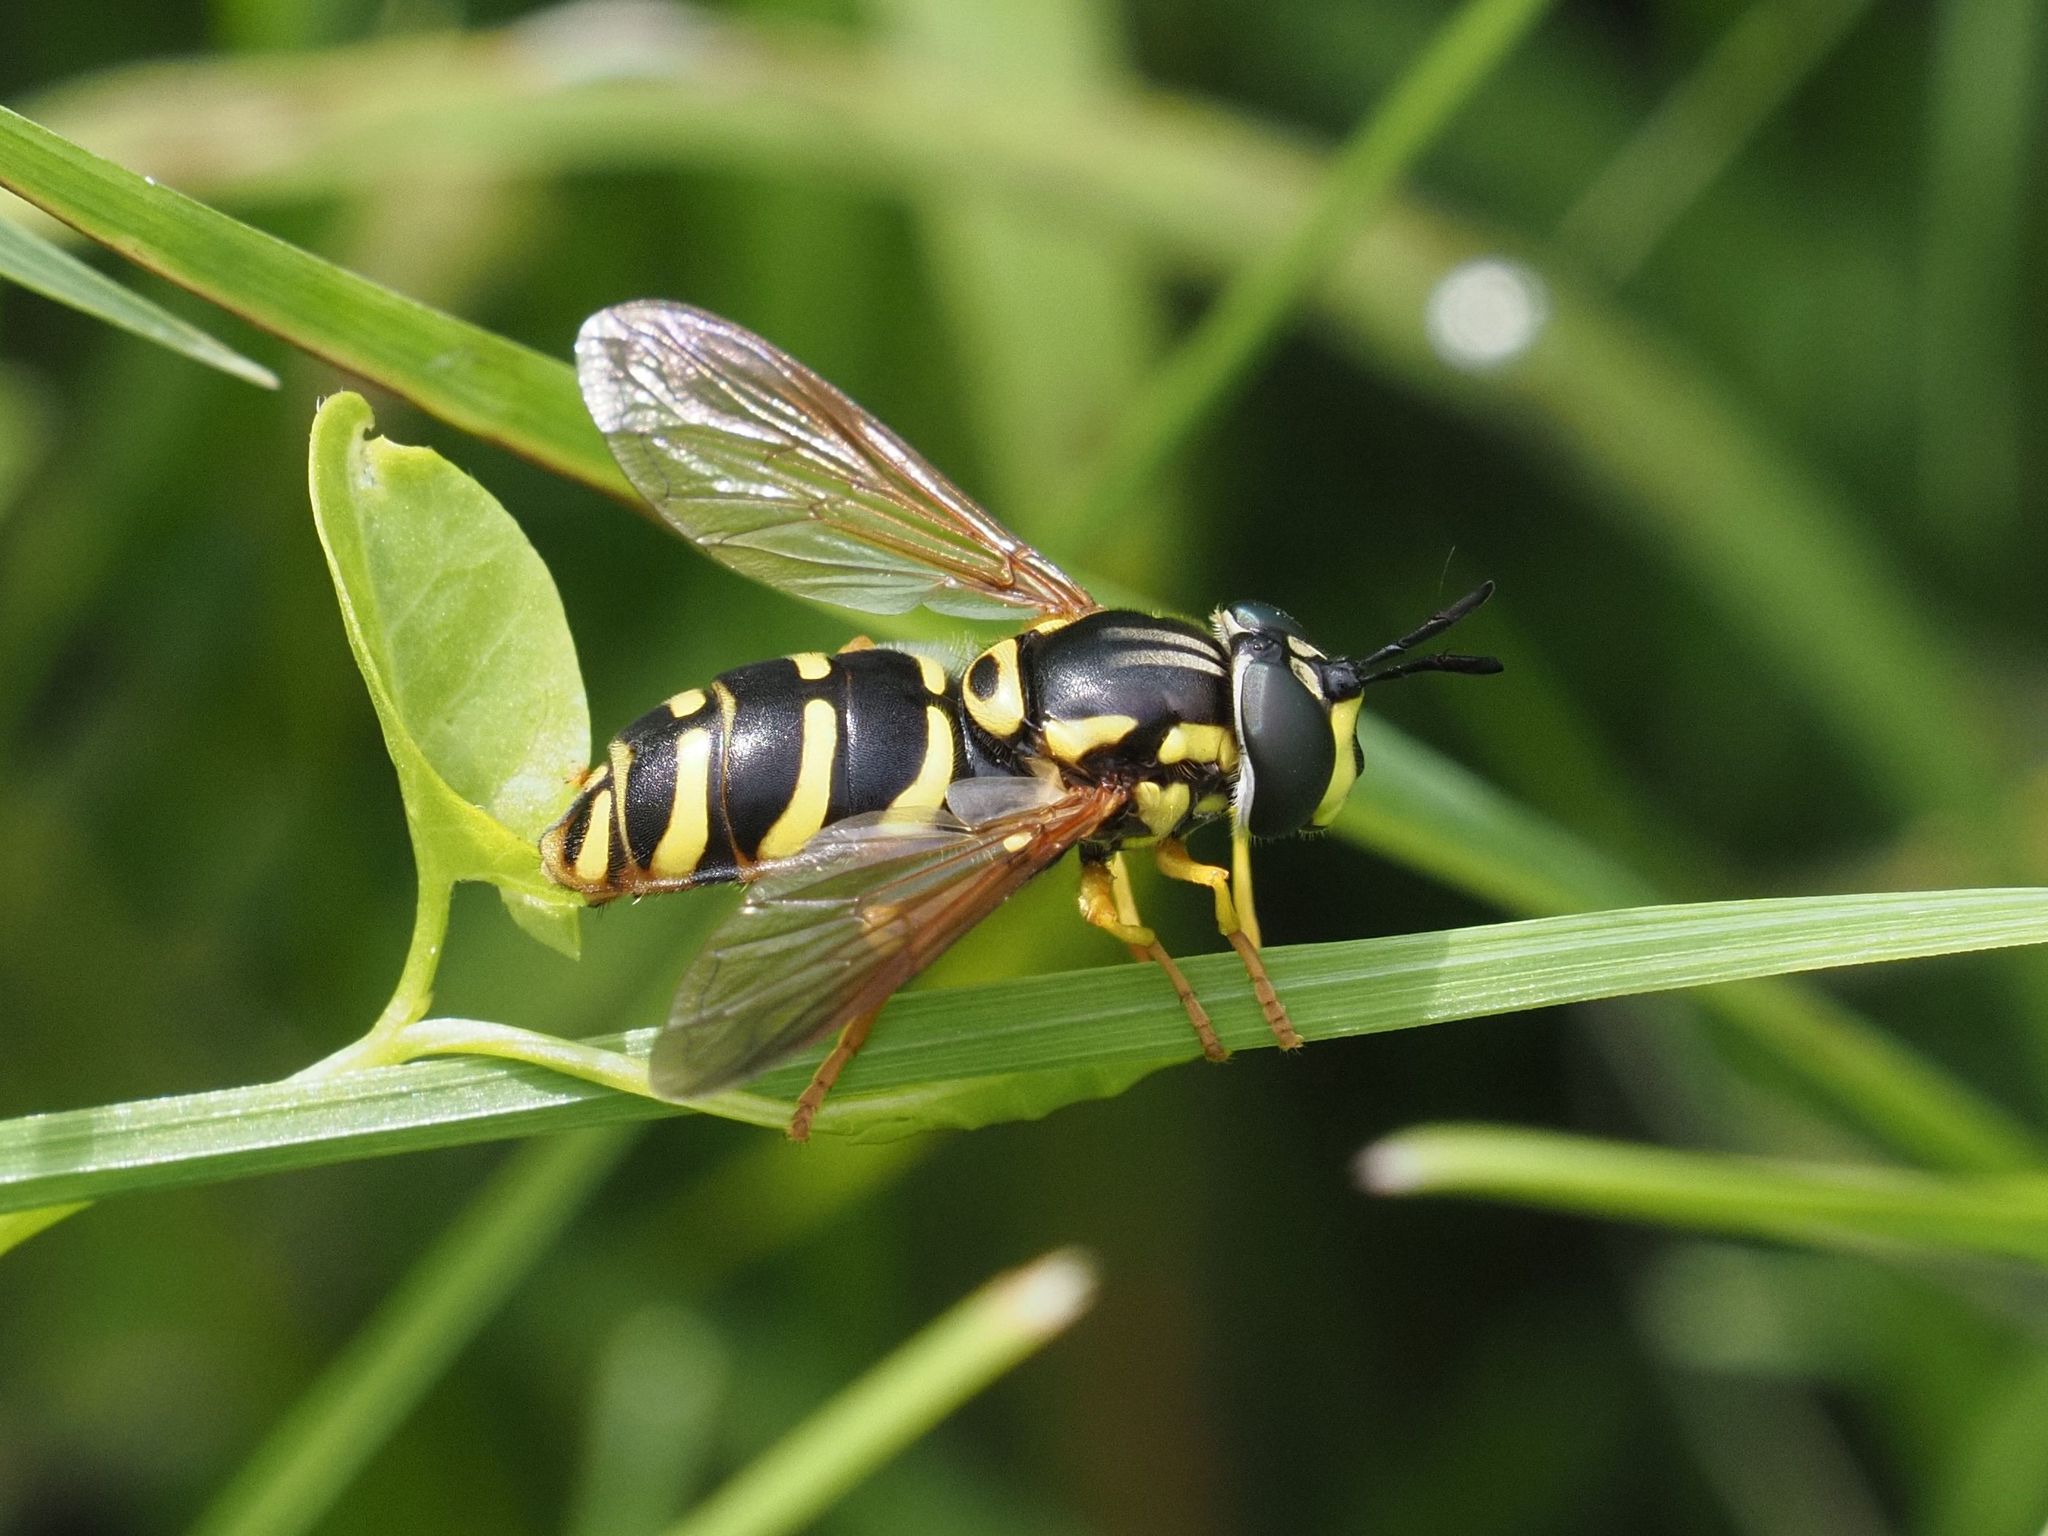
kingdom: Animalia
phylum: Arthropoda
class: Insecta
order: Diptera
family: Syrphidae
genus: Chrysotoxum
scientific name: Chrysotoxum elegans
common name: Zipperback
